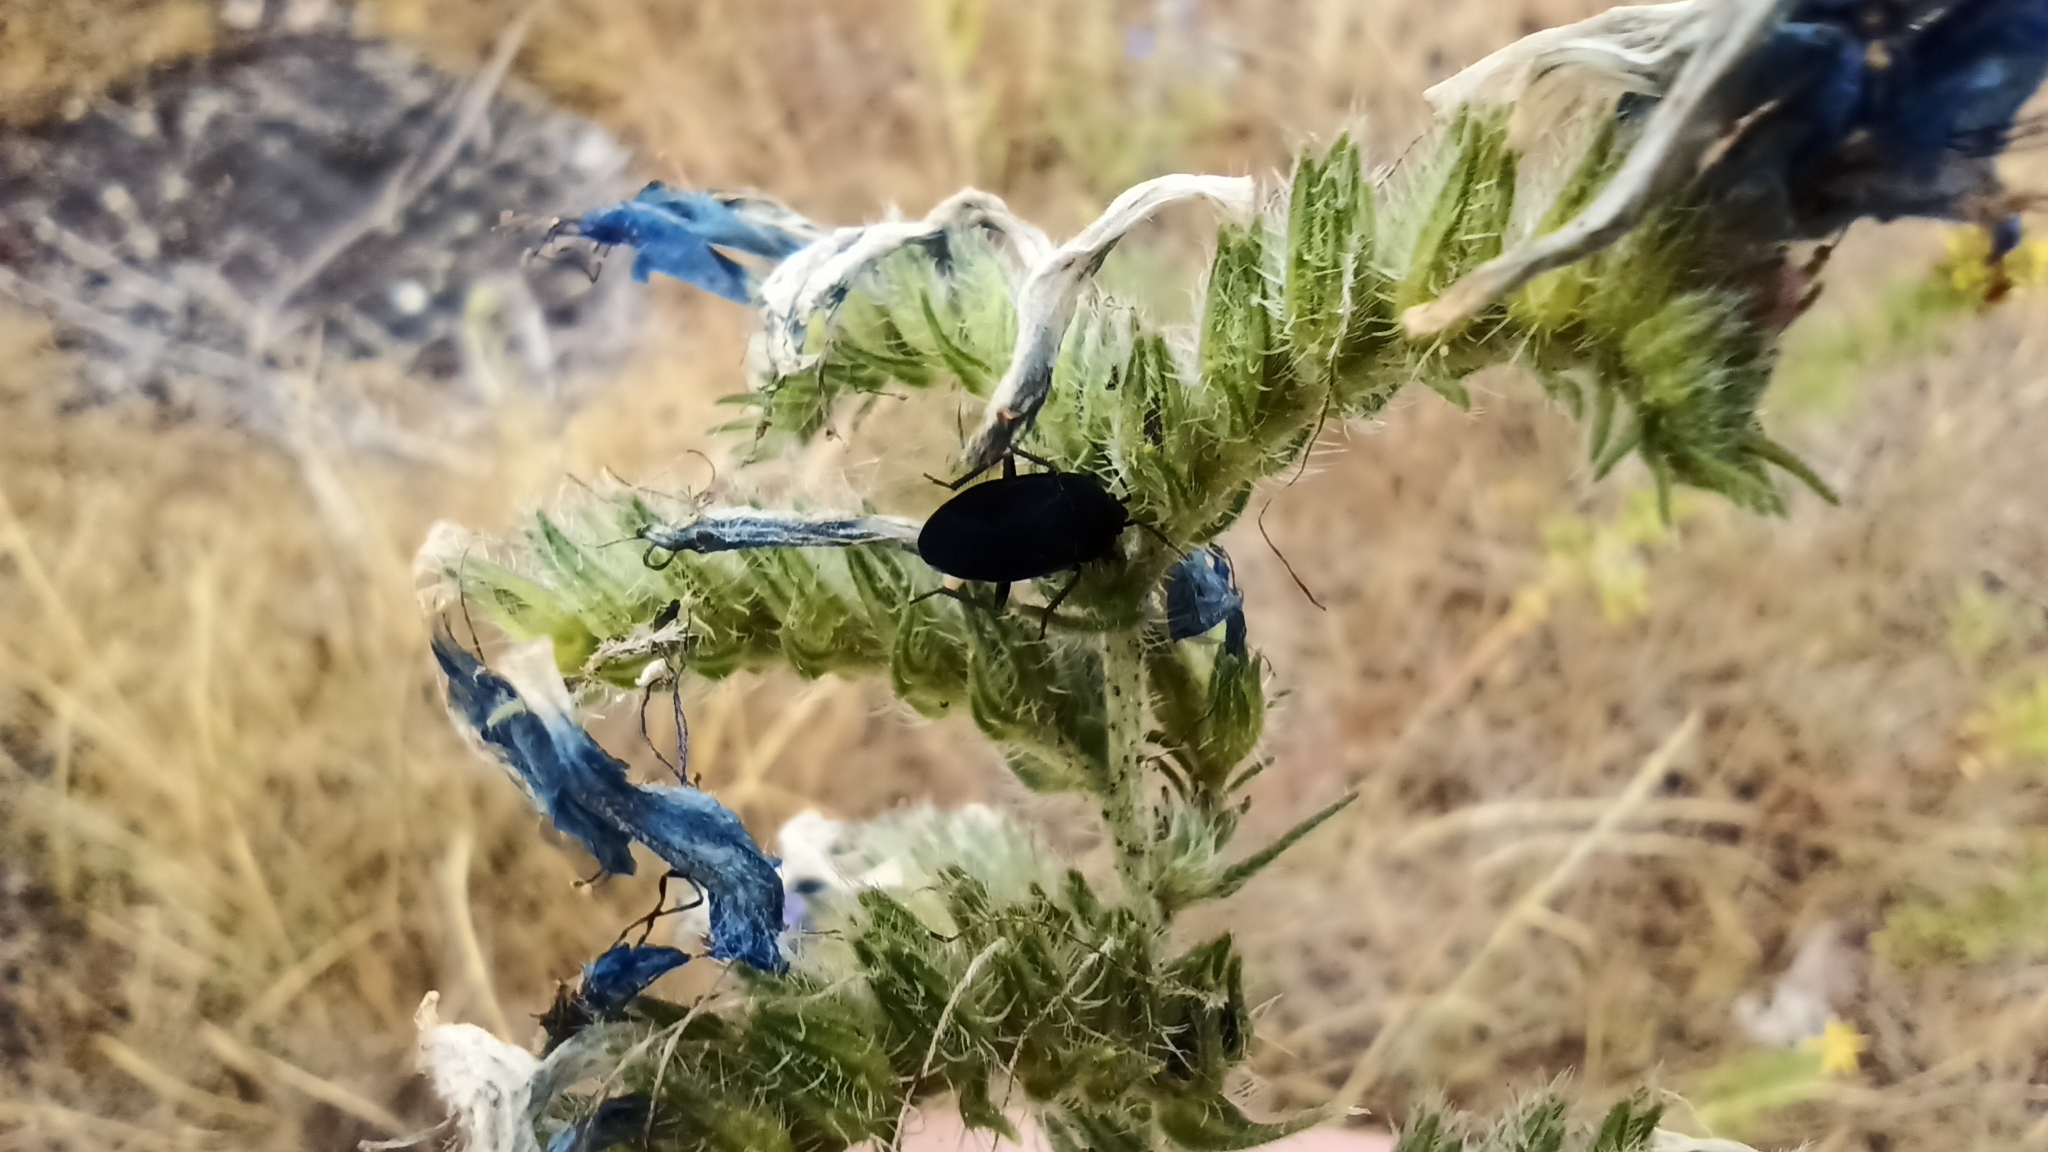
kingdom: Animalia
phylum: Arthropoda
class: Insecta
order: Hemiptera
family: Rhyparochromidae
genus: Aellopus
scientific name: Aellopus atratus
